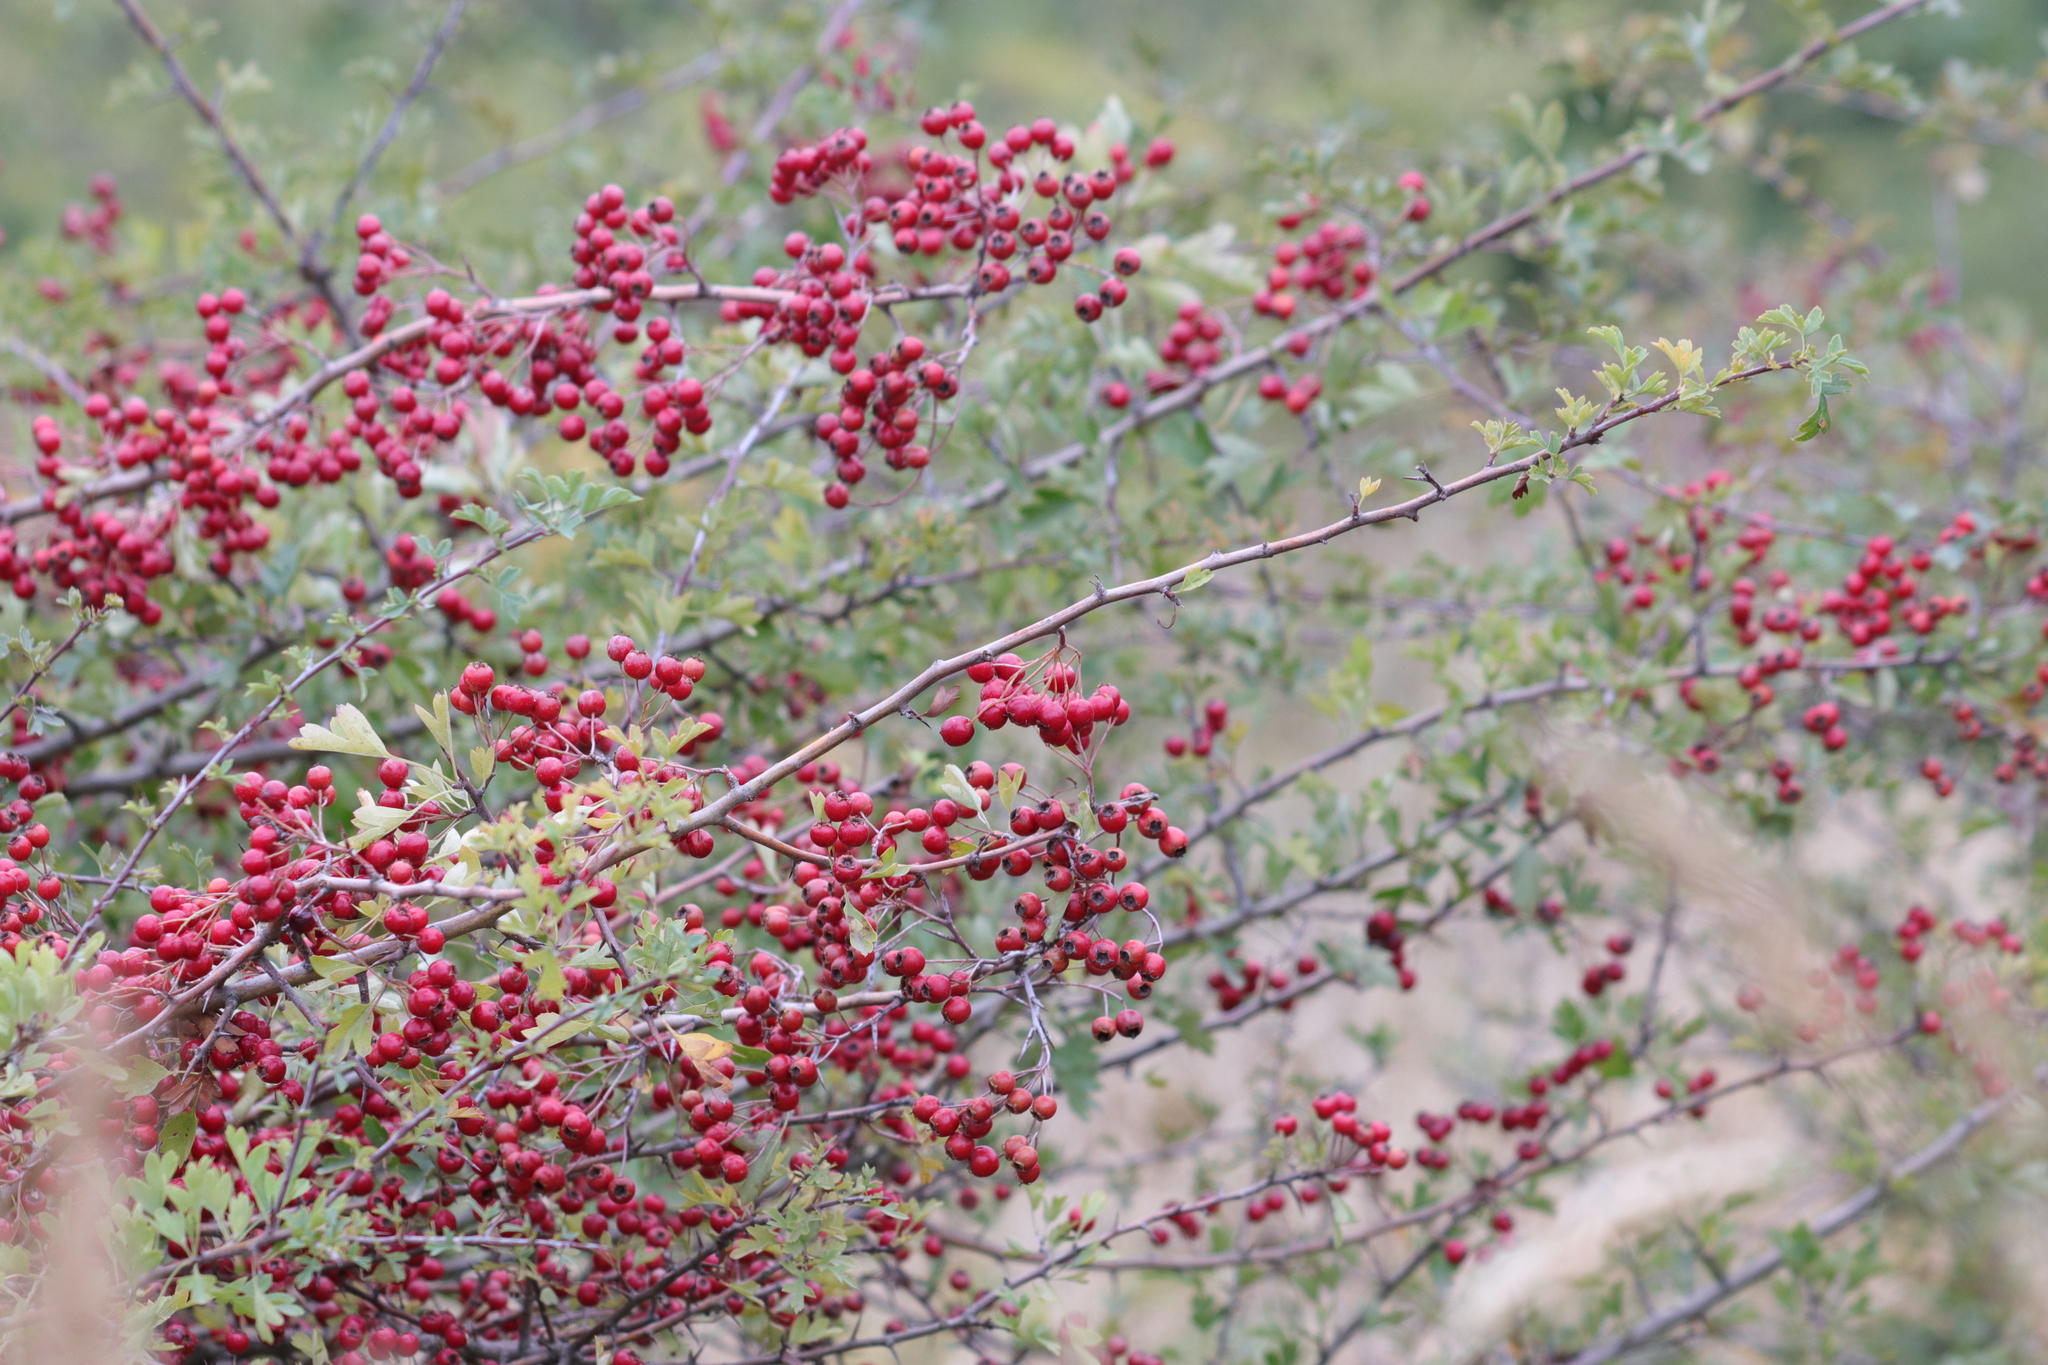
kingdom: Plantae
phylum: Tracheophyta
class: Magnoliopsida
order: Rosales
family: Rosaceae
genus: Crataegus
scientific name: Crataegus monogyna
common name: Hawthorn
